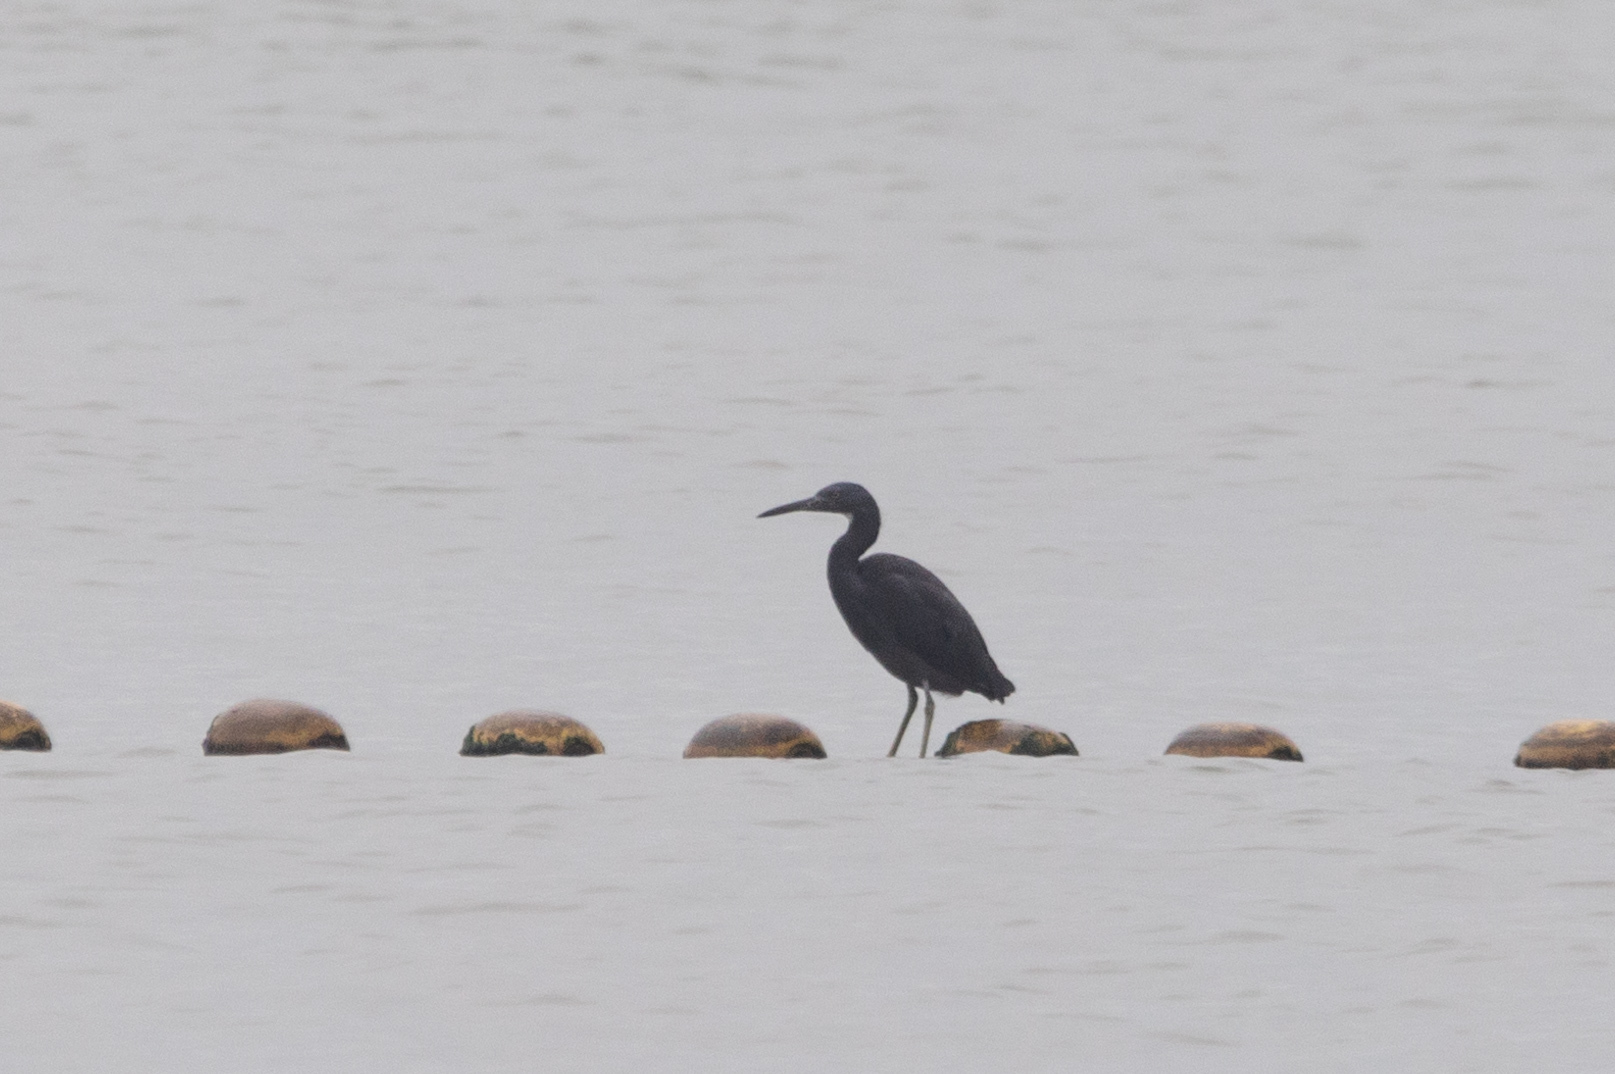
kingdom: Animalia
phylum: Chordata
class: Aves
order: Pelecaniformes
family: Ardeidae
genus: Egretta
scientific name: Egretta sacra
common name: Pacific reef heron
